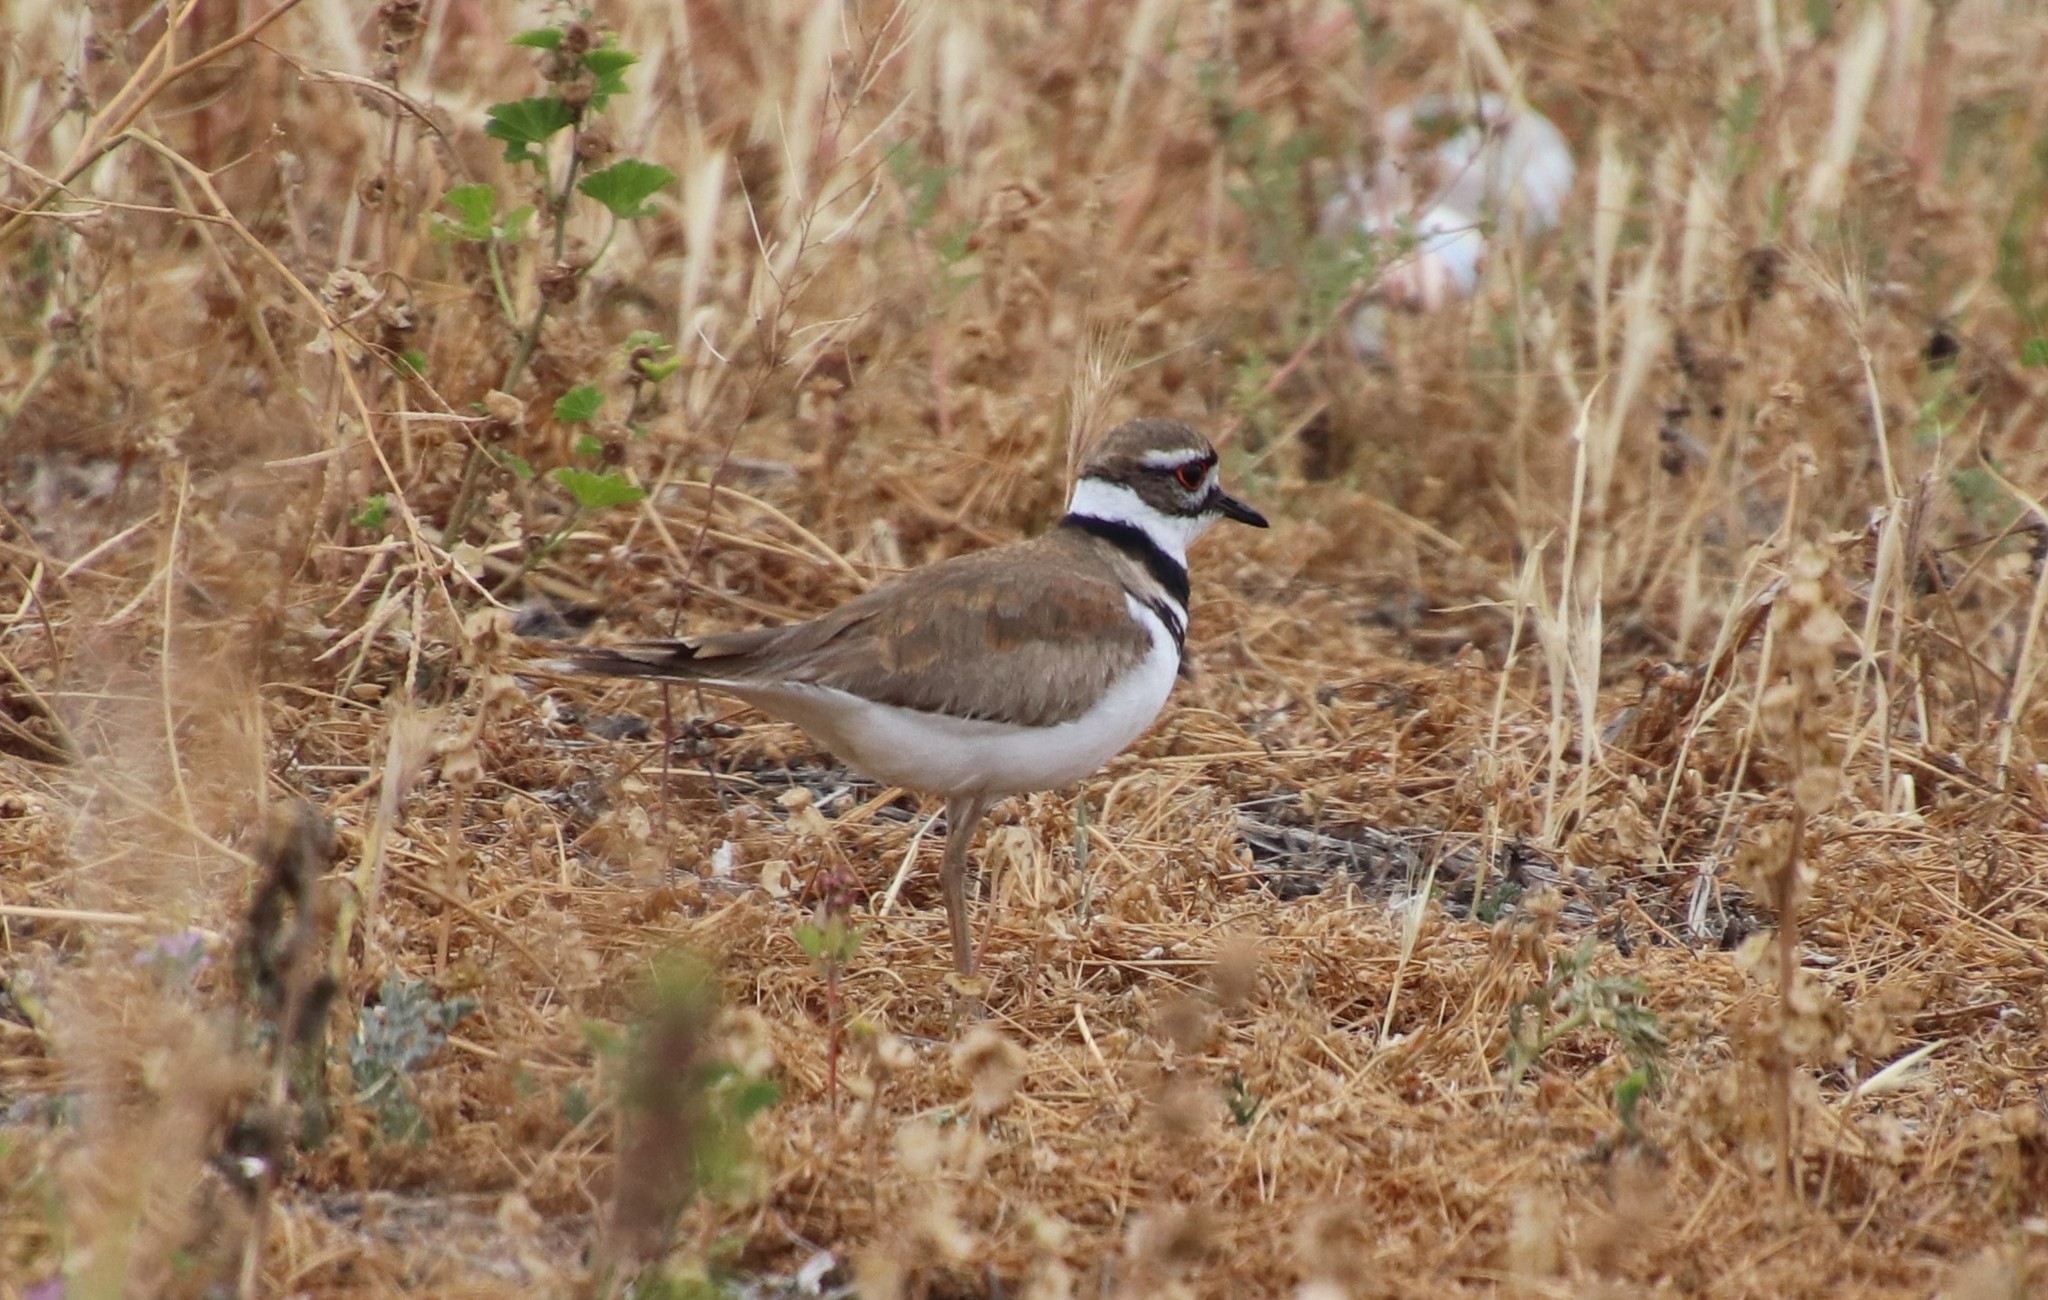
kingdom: Animalia
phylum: Chordata
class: Aves
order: Charadriiformes
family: Charadriidae
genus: Charadrius
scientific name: Charadrius vociferus
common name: Killdeer
